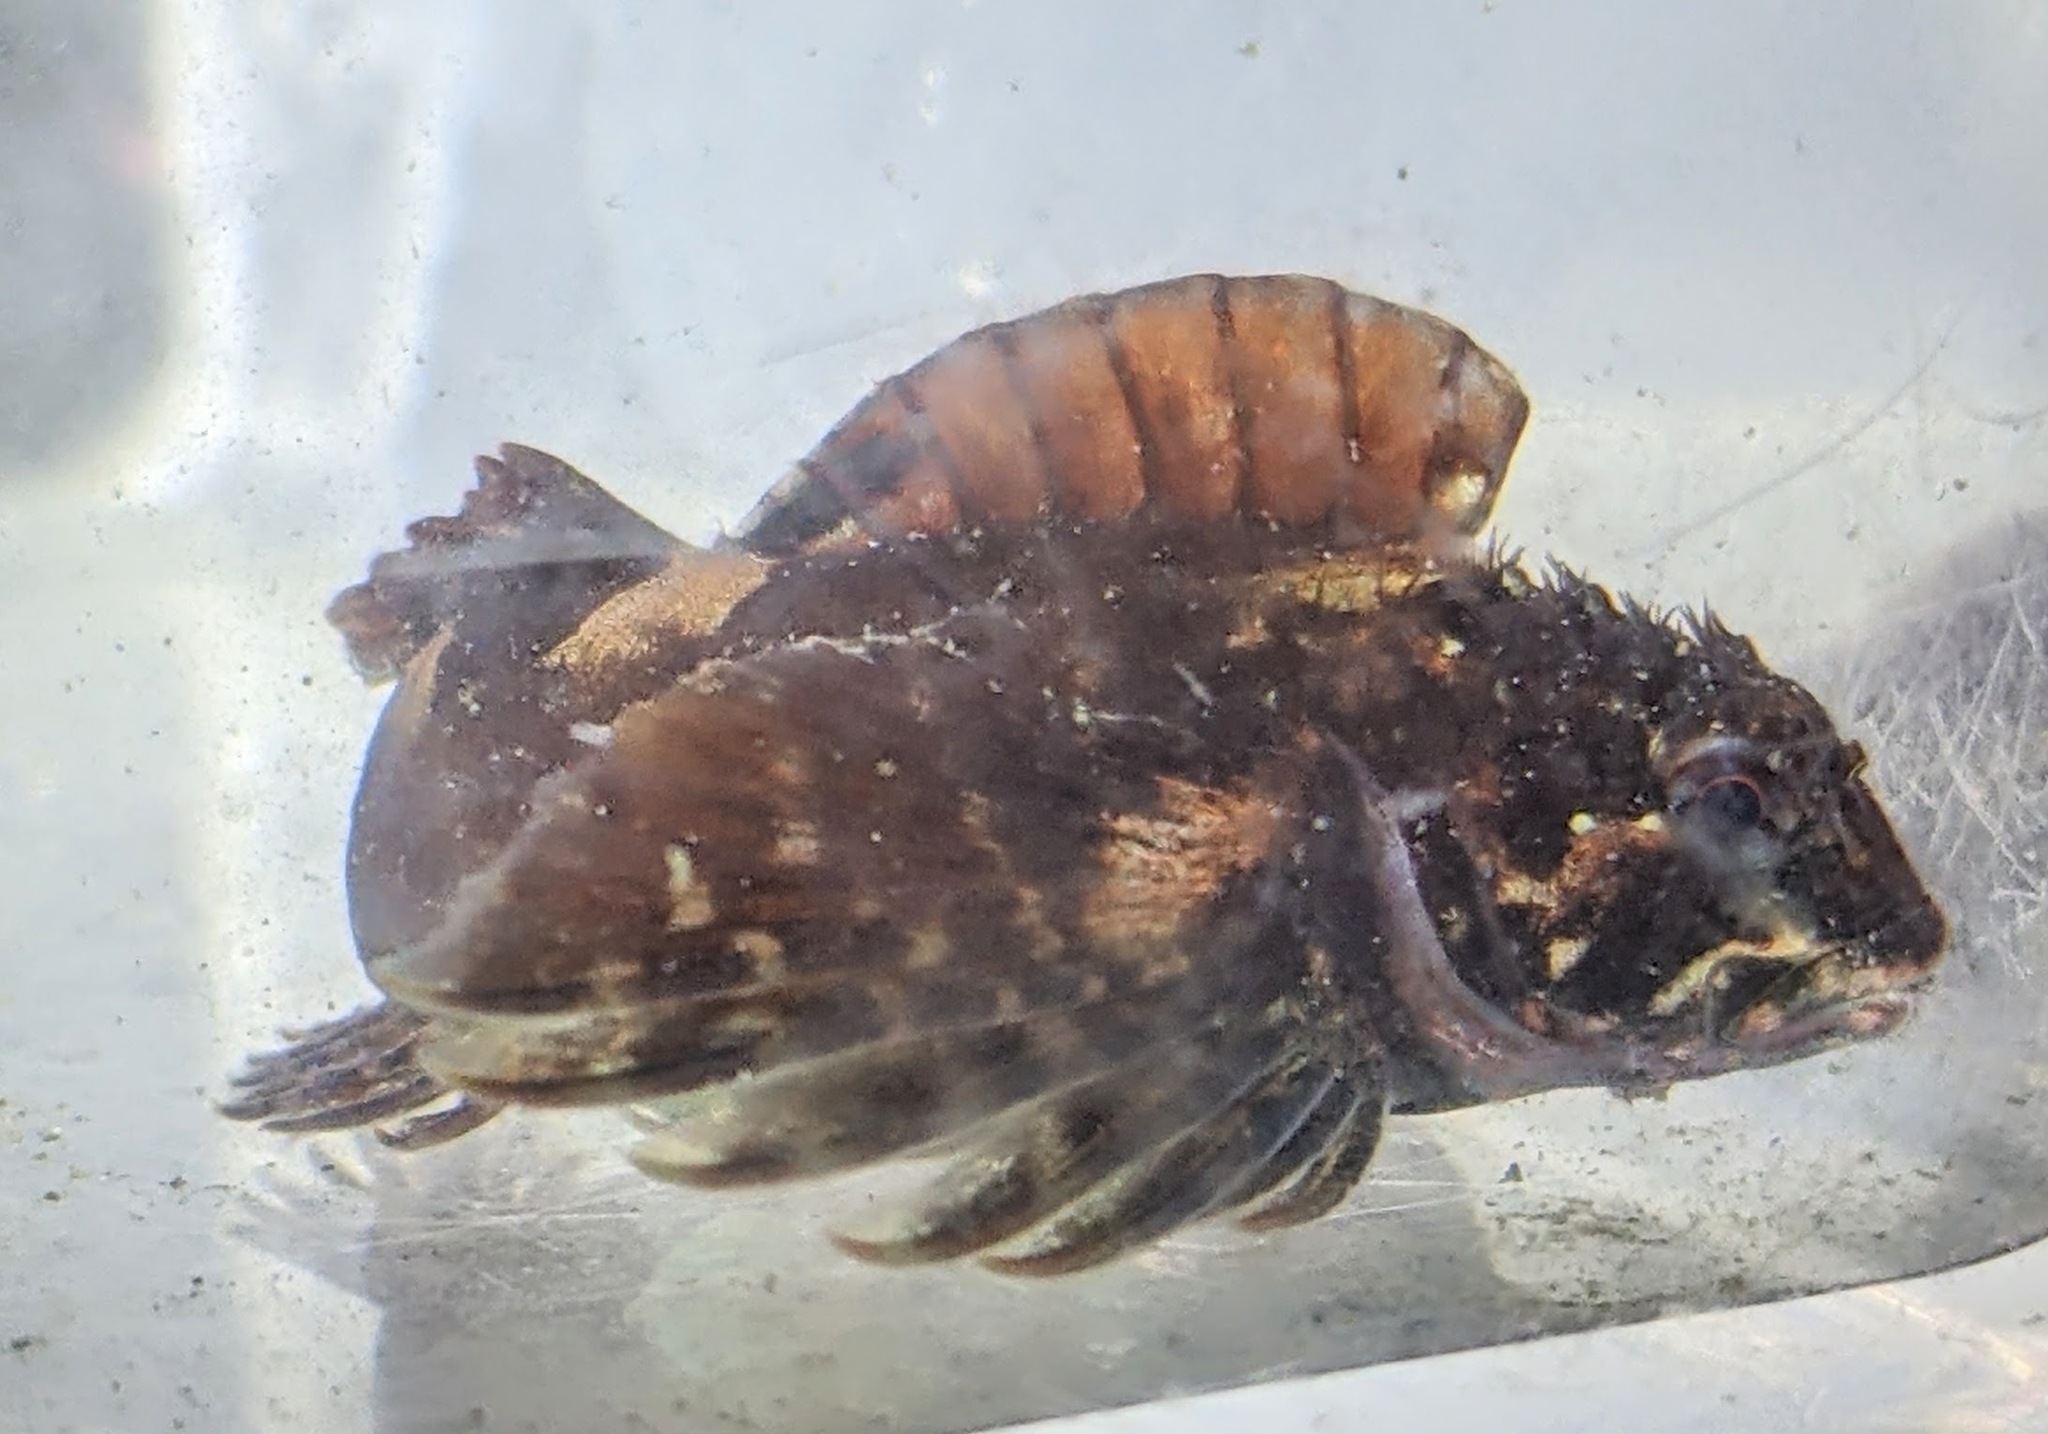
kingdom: Animalia
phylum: Chordata
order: Scorpaeniformes
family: Cottidae
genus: Clinocottus
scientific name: Clinocottus embryum
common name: Calico sculpin
